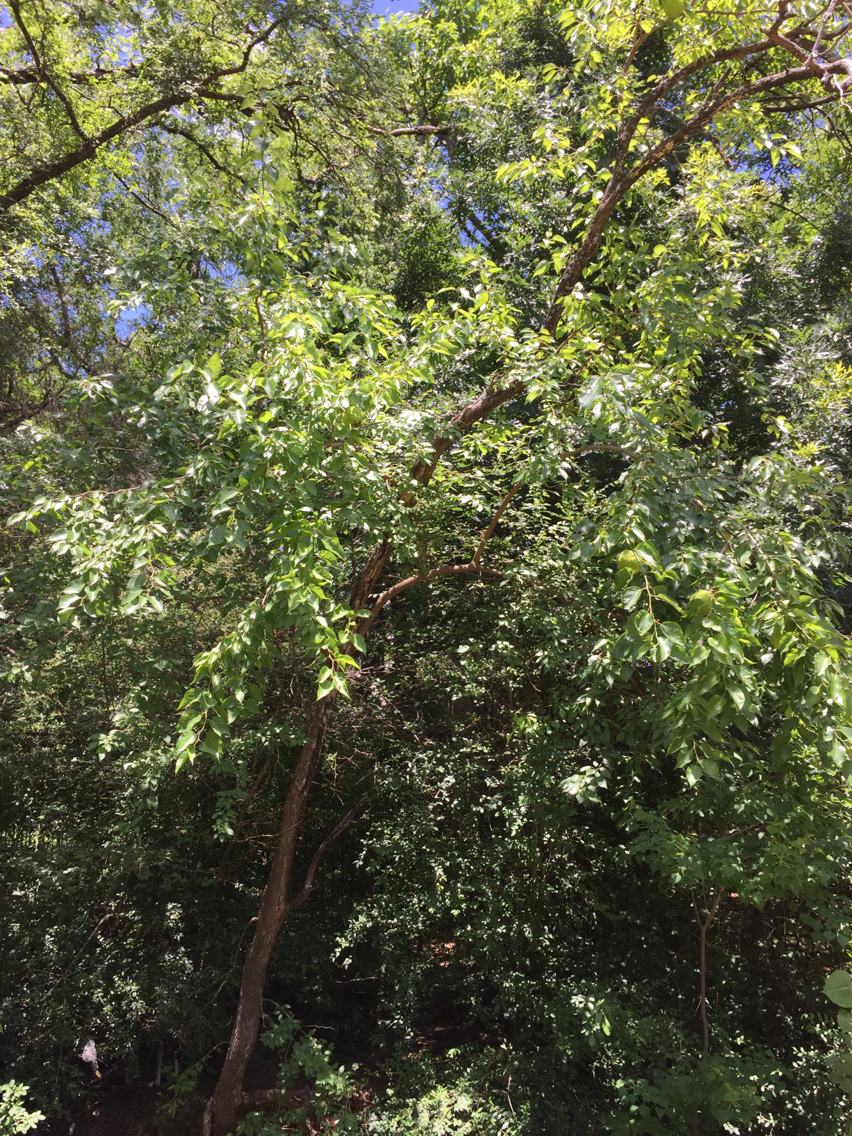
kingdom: Plantae
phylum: Tracheophyta
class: Magnoliopsida
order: Rosales
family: Moraceae
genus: Maclura
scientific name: Maclura pomifera
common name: Osage-orange
